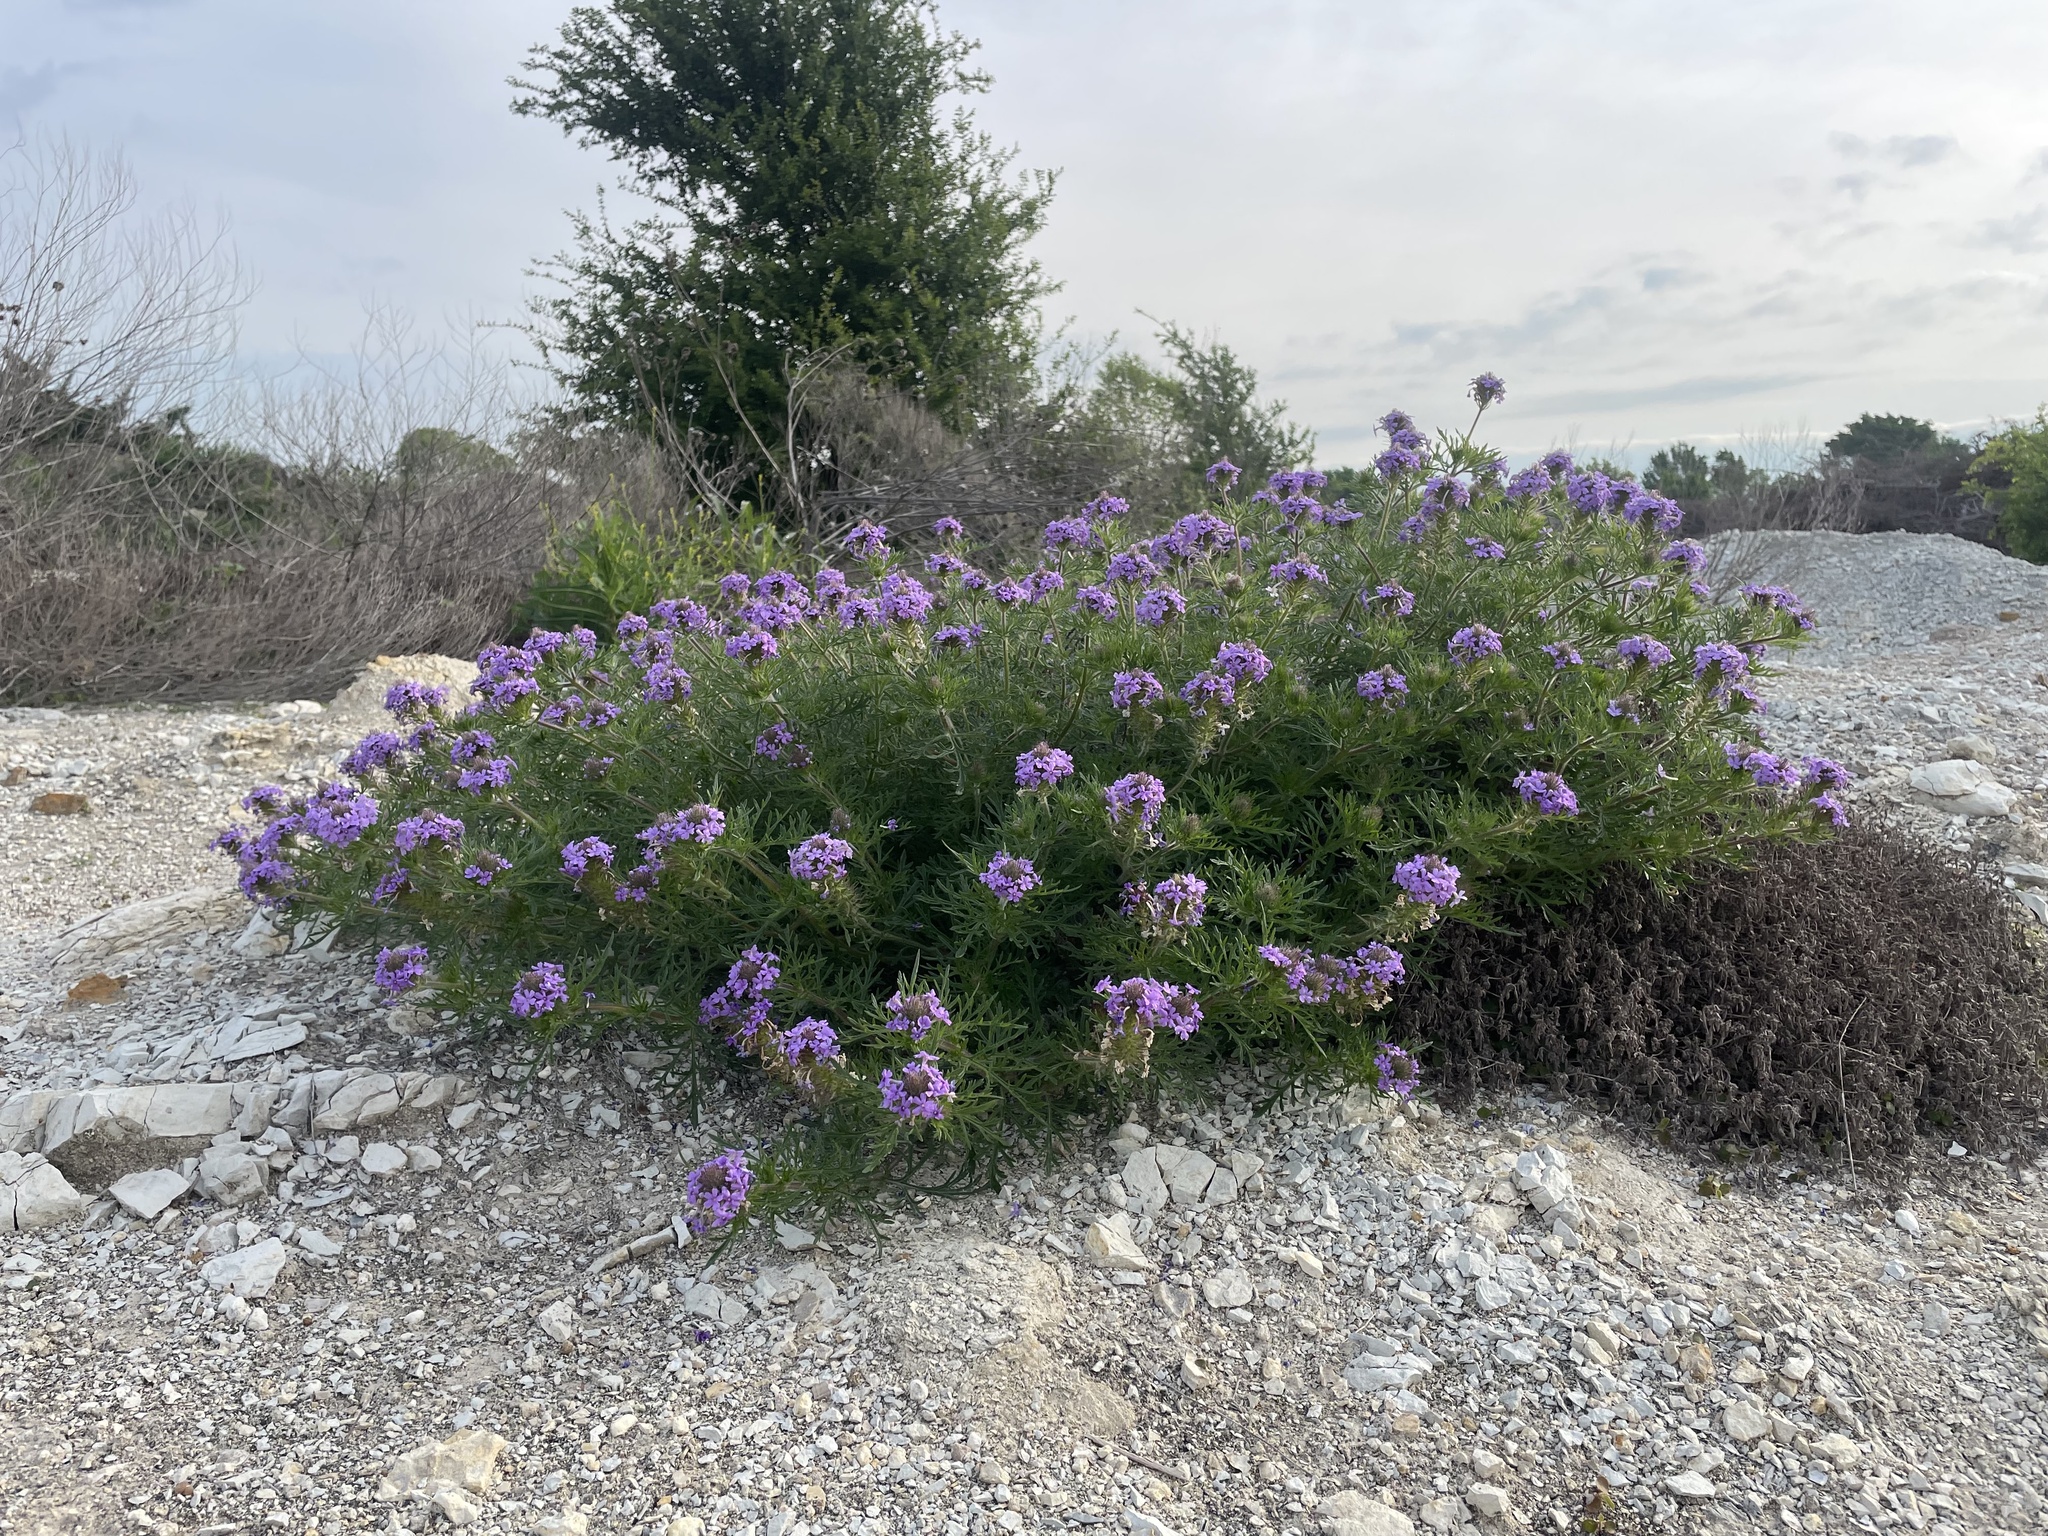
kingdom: Plantae
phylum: Tracheophyta
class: Magnoliopsida
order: Lamiales
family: Verbenaceae
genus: Verbena
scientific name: Verbena bipinnatifida
